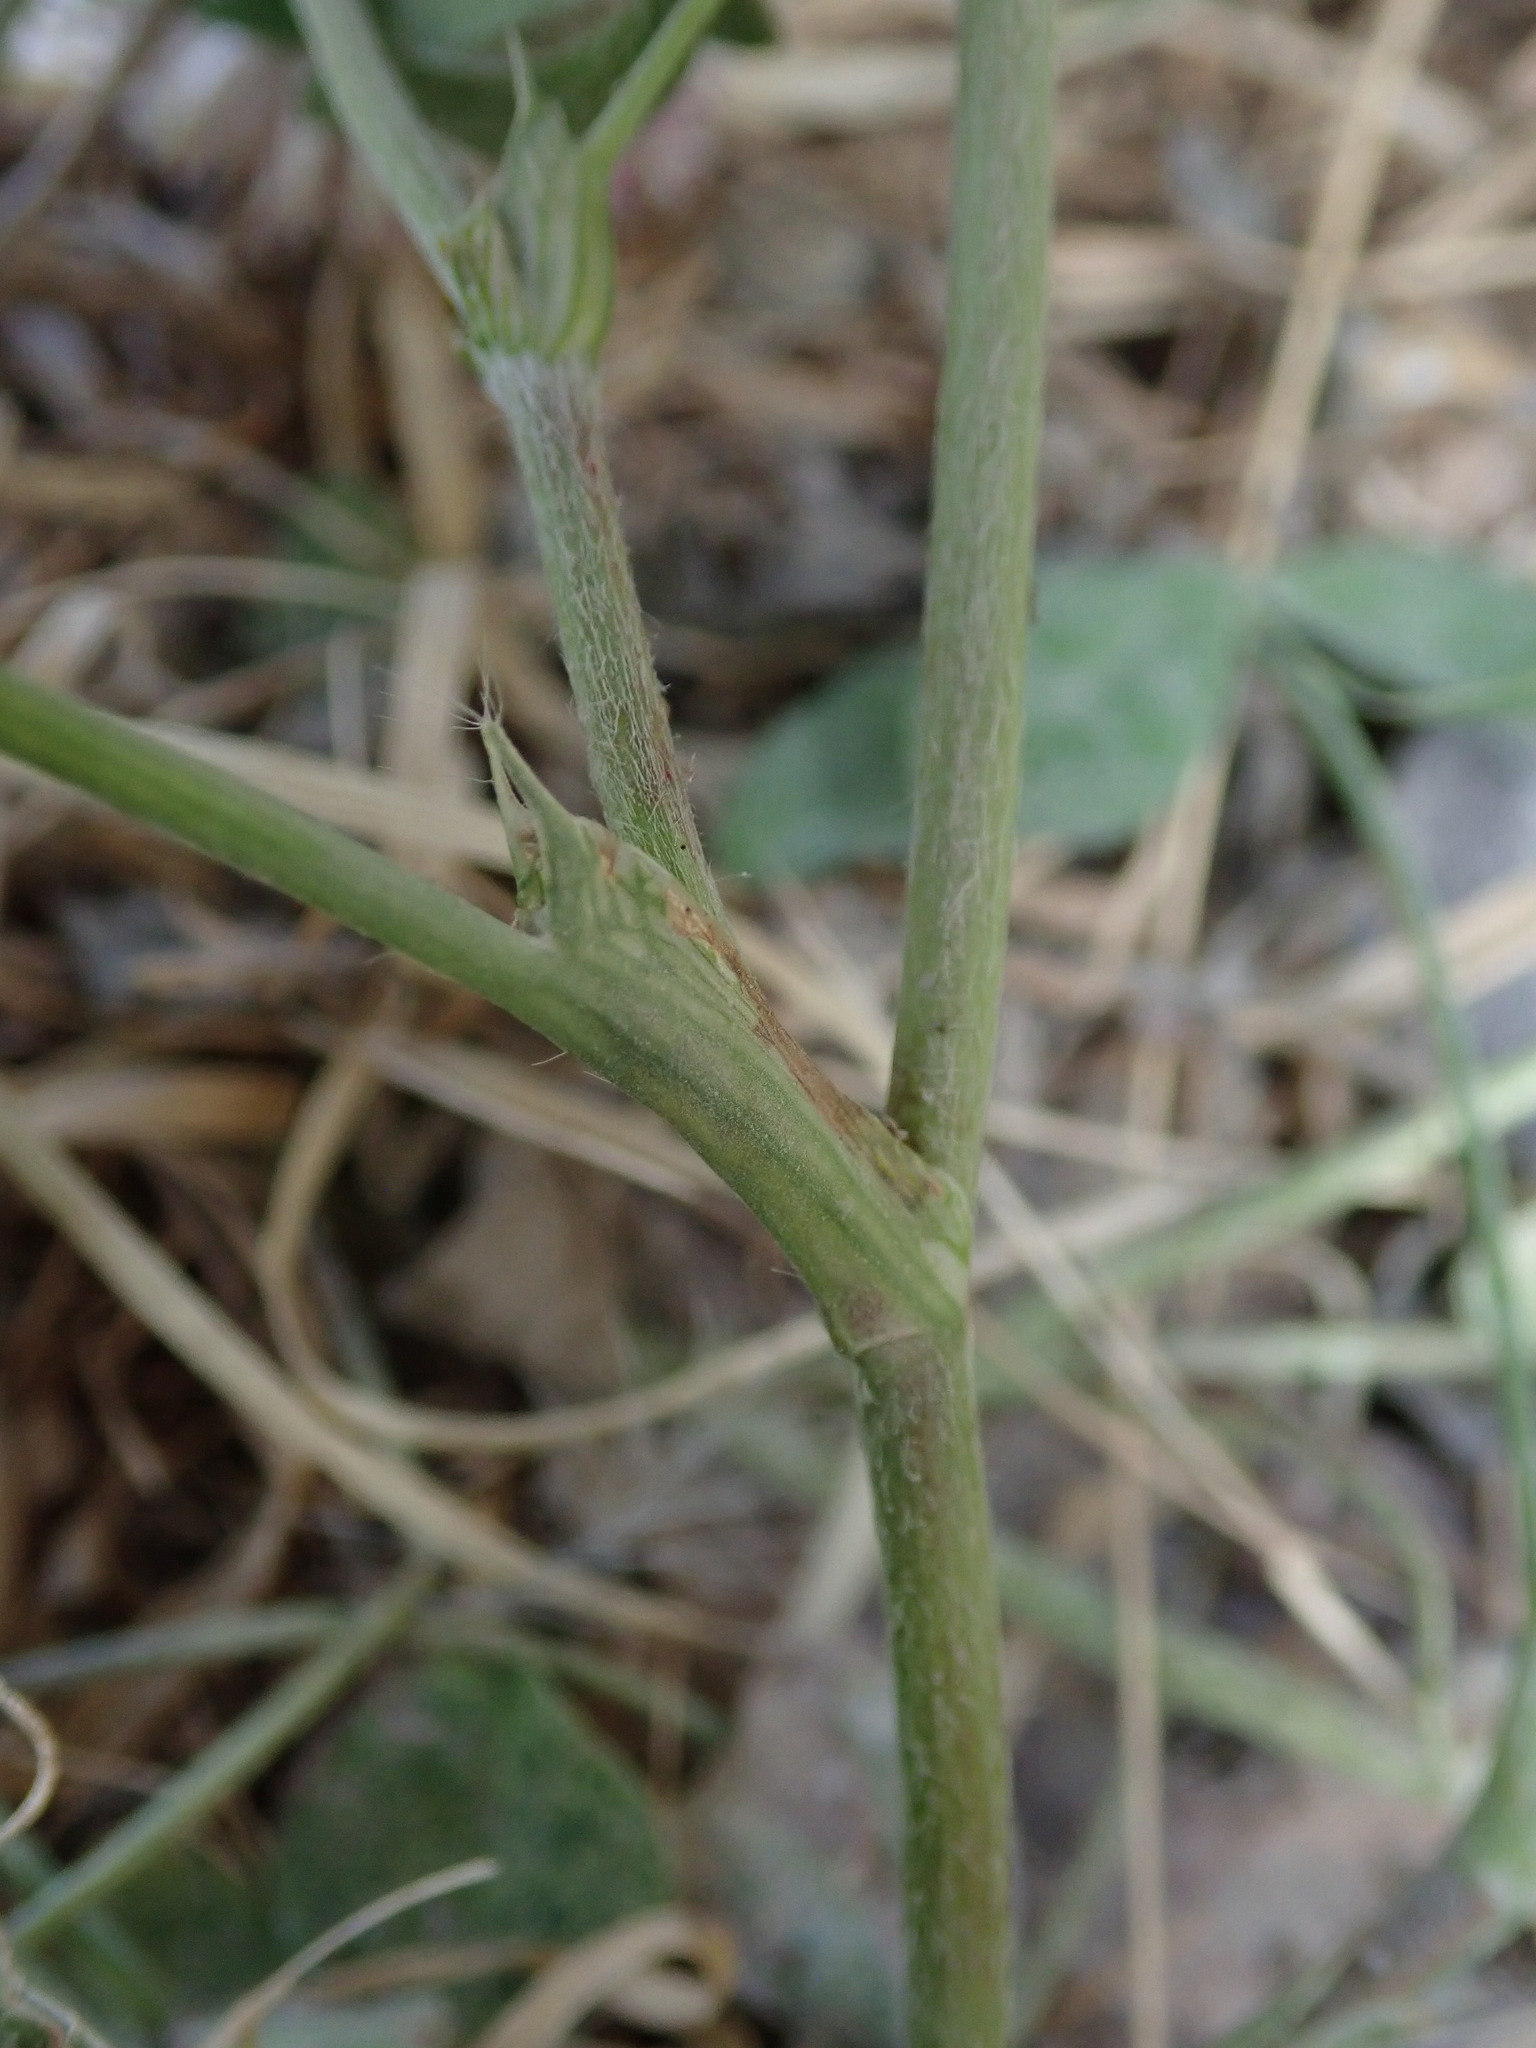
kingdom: Plantae
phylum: Tracheophyta
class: Magnoliopsida
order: Fabales
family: Fabaceae
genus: Trifolium
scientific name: Trifolium pratense
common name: Red clover
